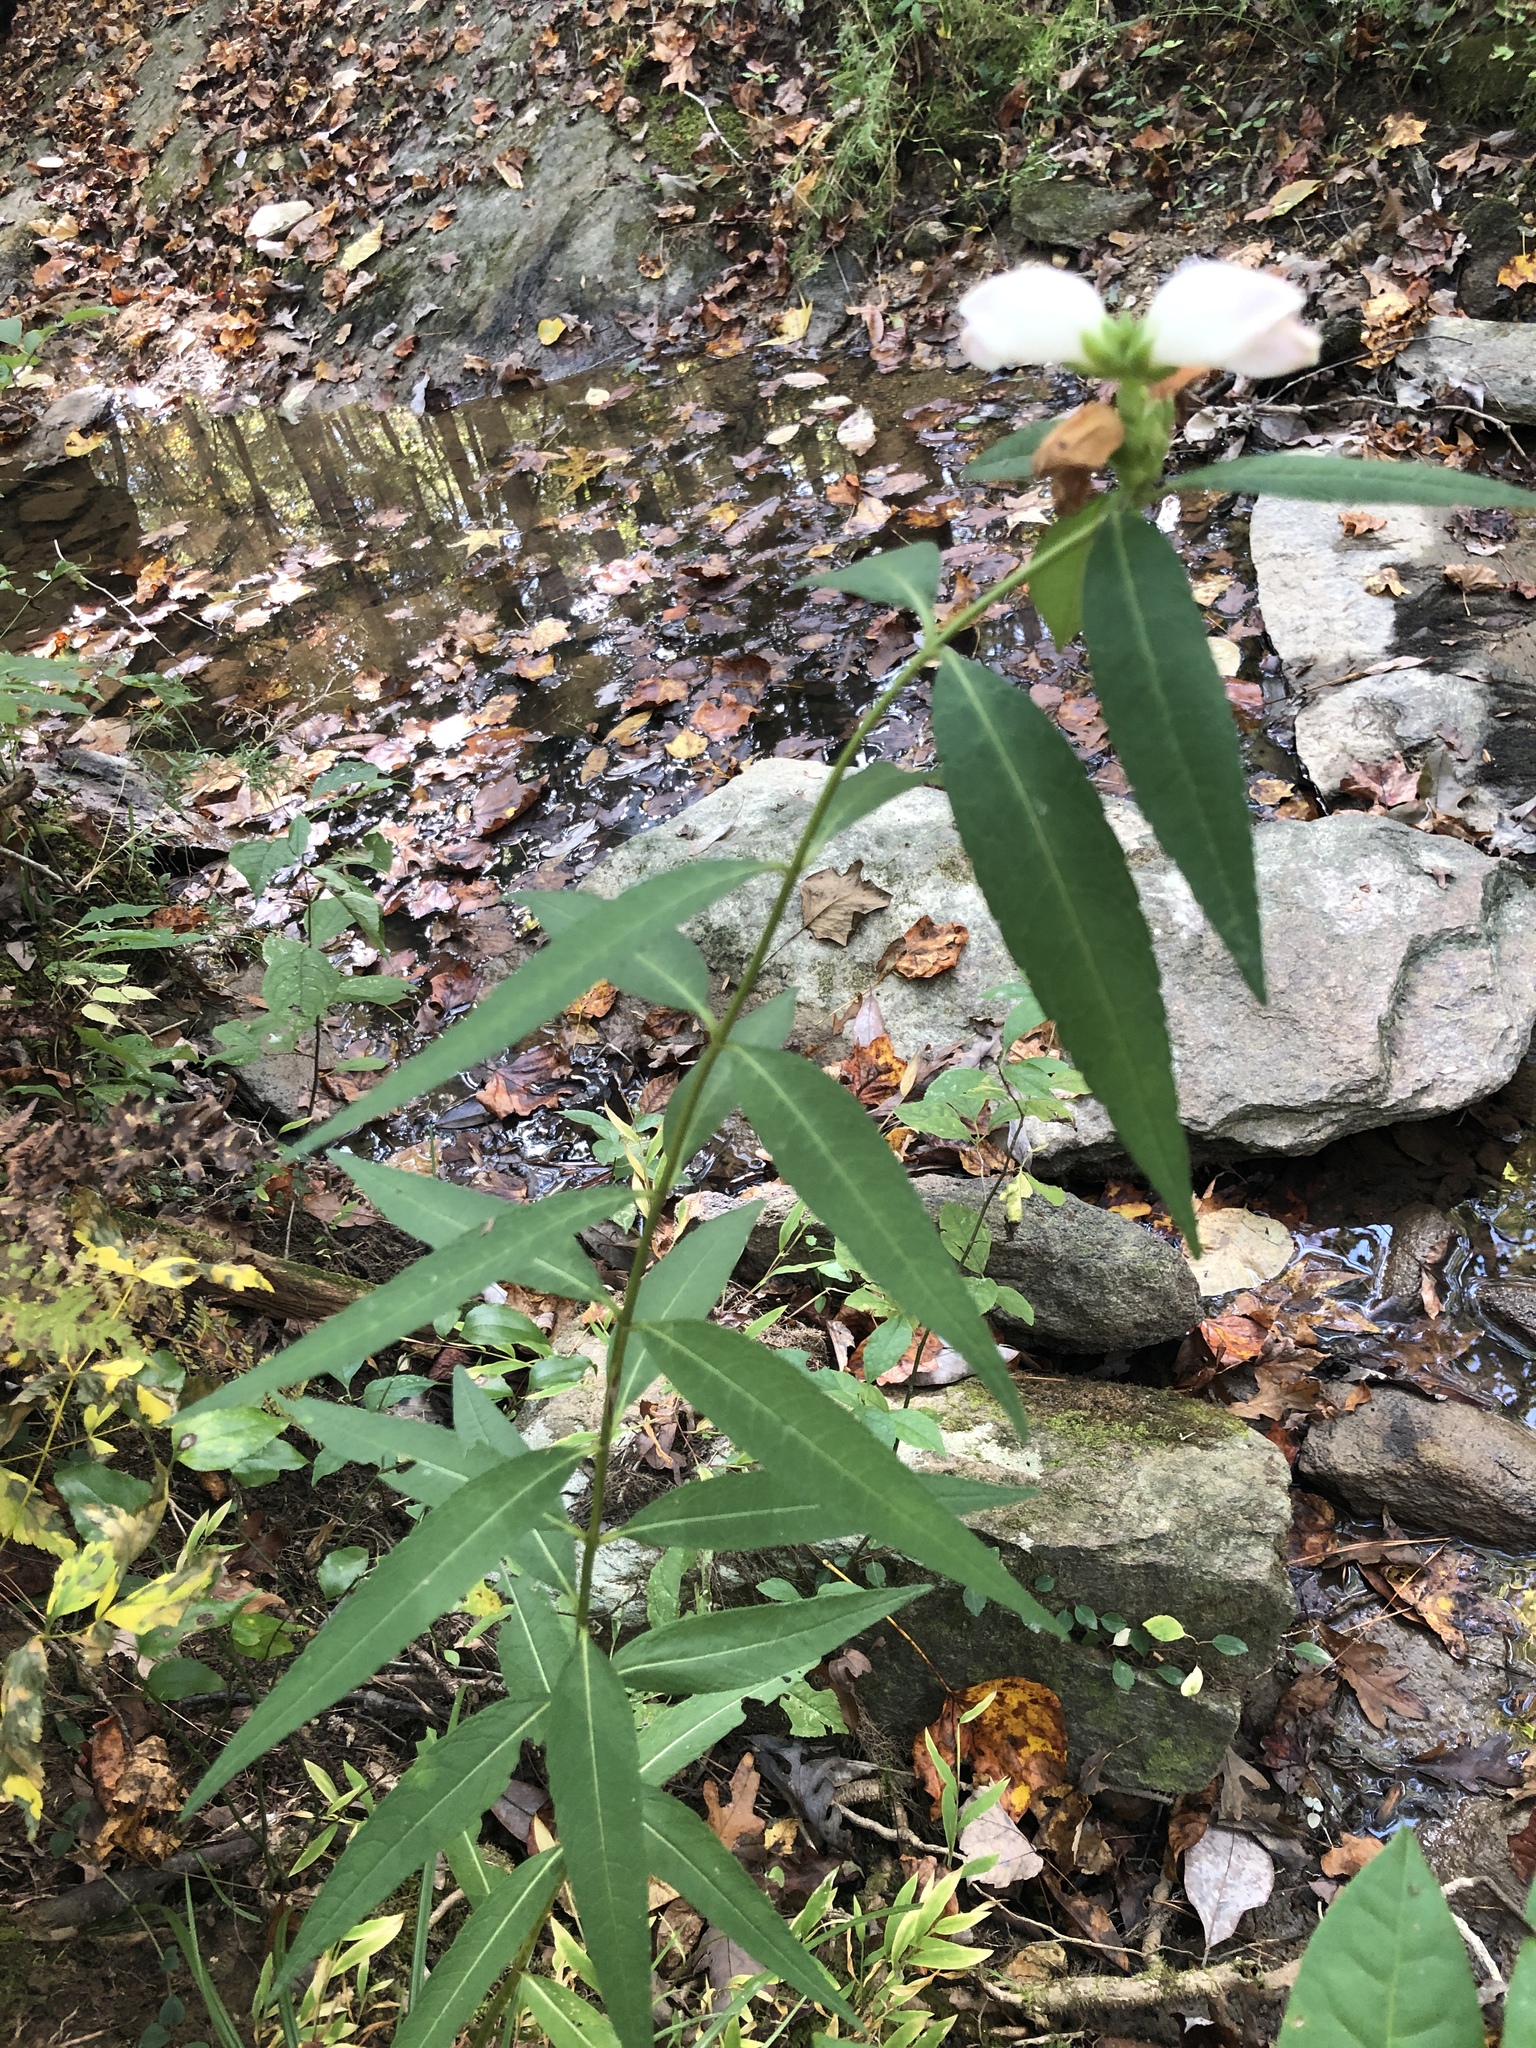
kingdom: Plantae
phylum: Tracheophyta
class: Magnoliopsida
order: Lamiales
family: Plantaginaceae
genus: Chelone
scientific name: Chelone glabra
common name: Snakehead
